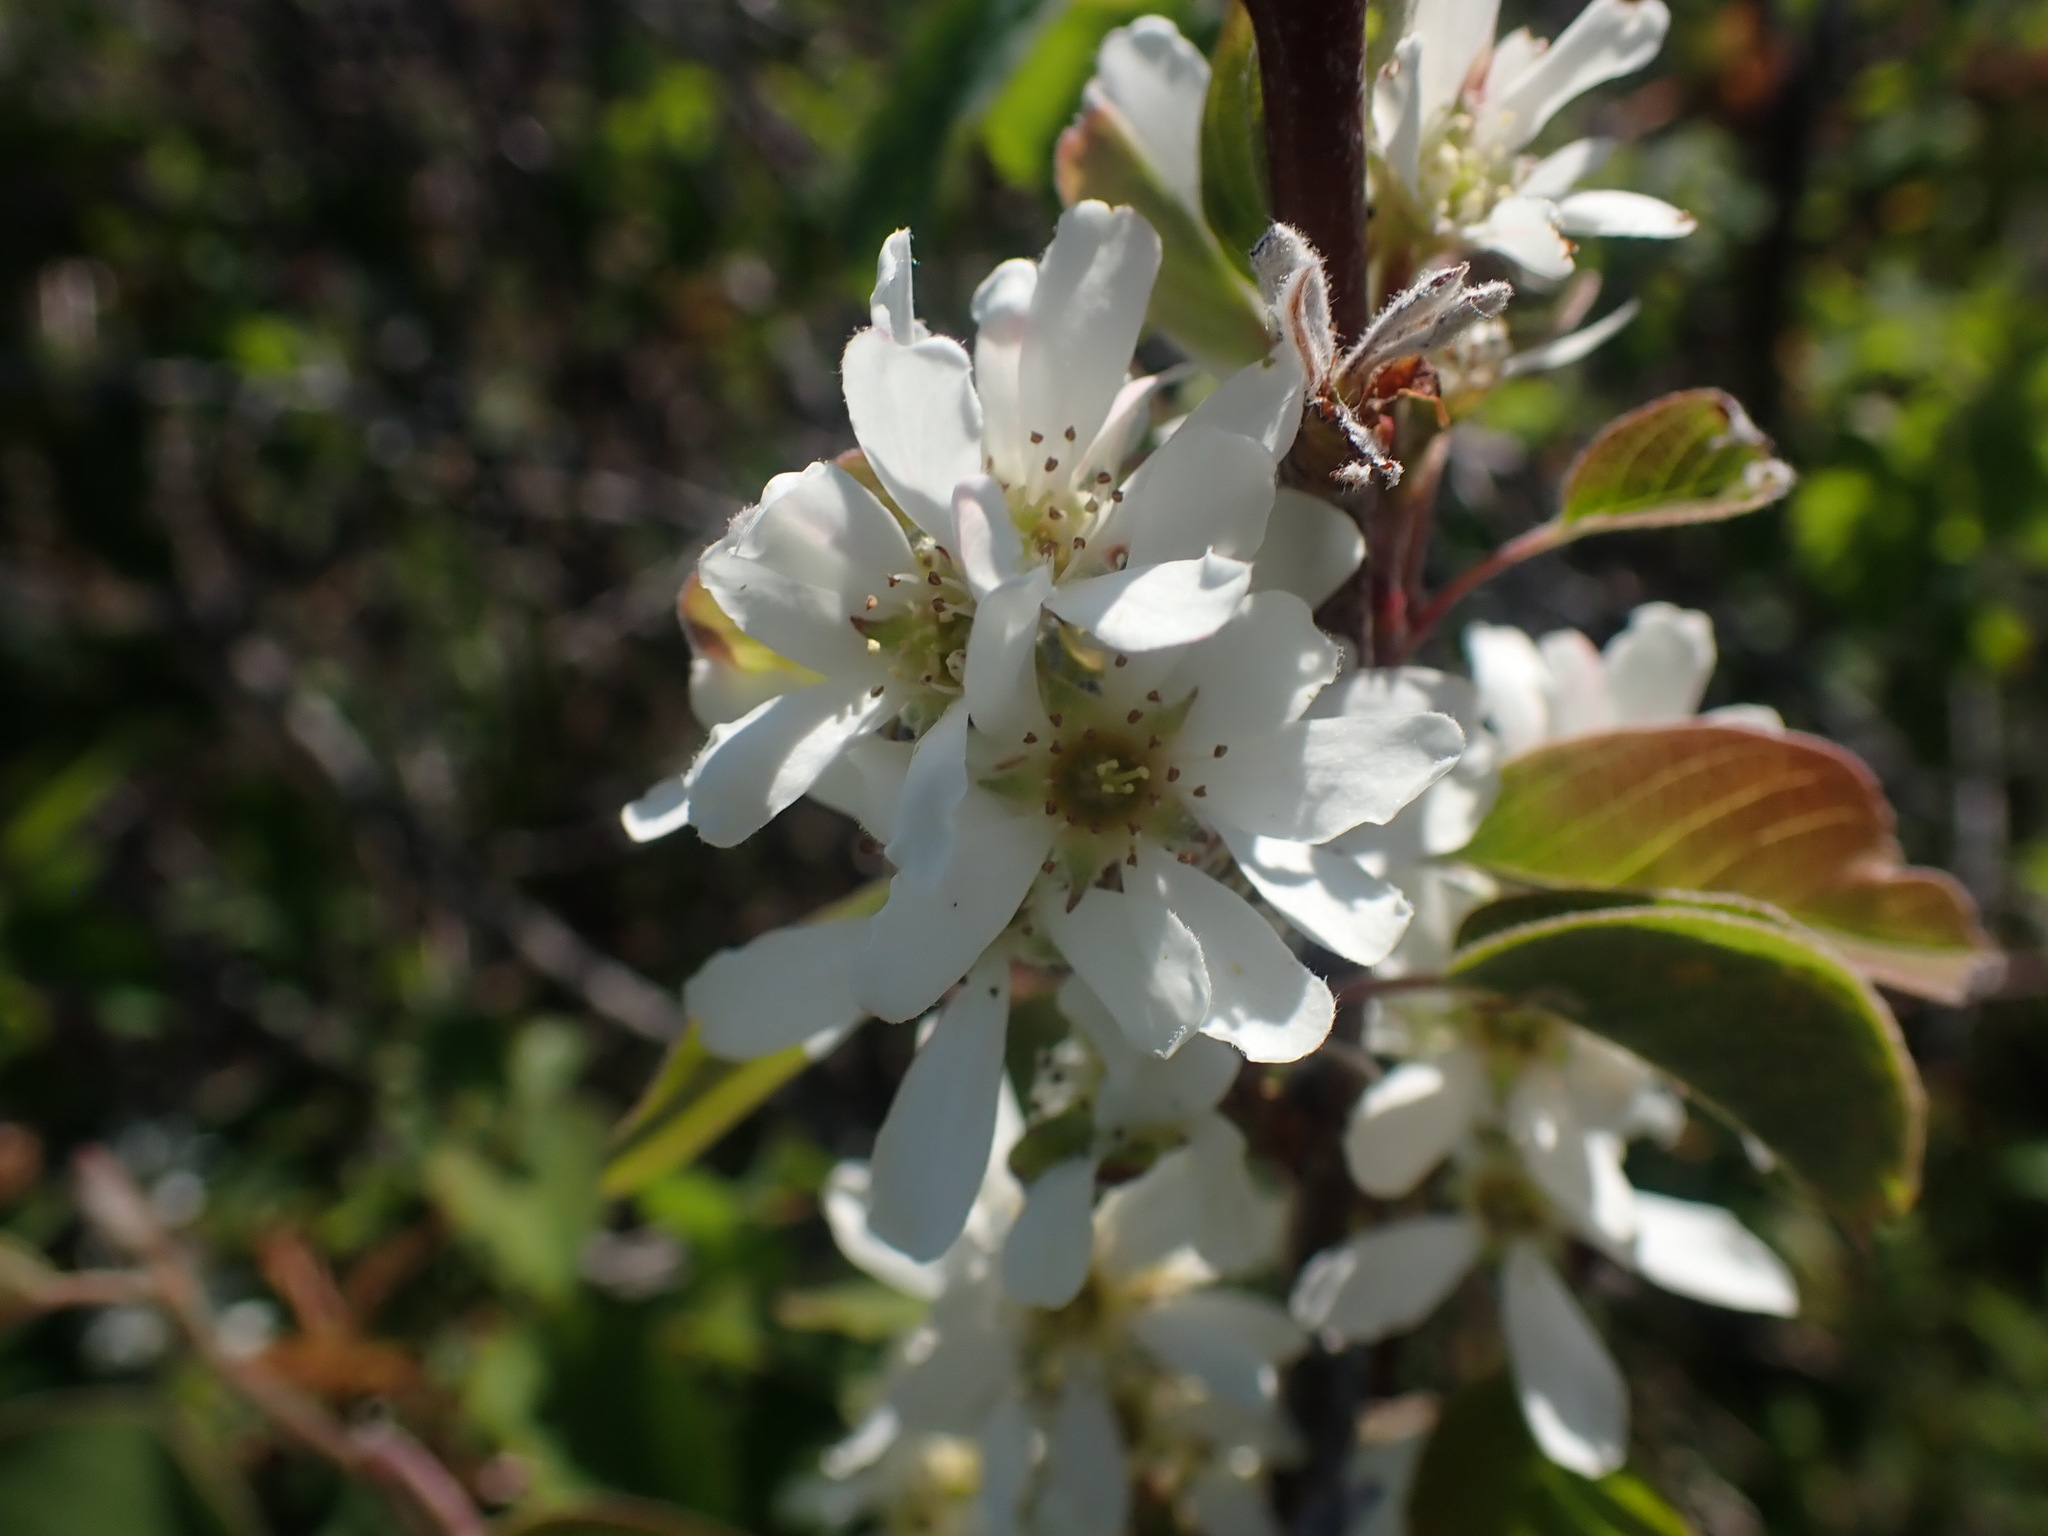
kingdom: Plantae
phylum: Tracheophyta
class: Magnoliopsida
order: Rosales
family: Rosaceae
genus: Amelanchier
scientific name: Amelanchier alnifolia
